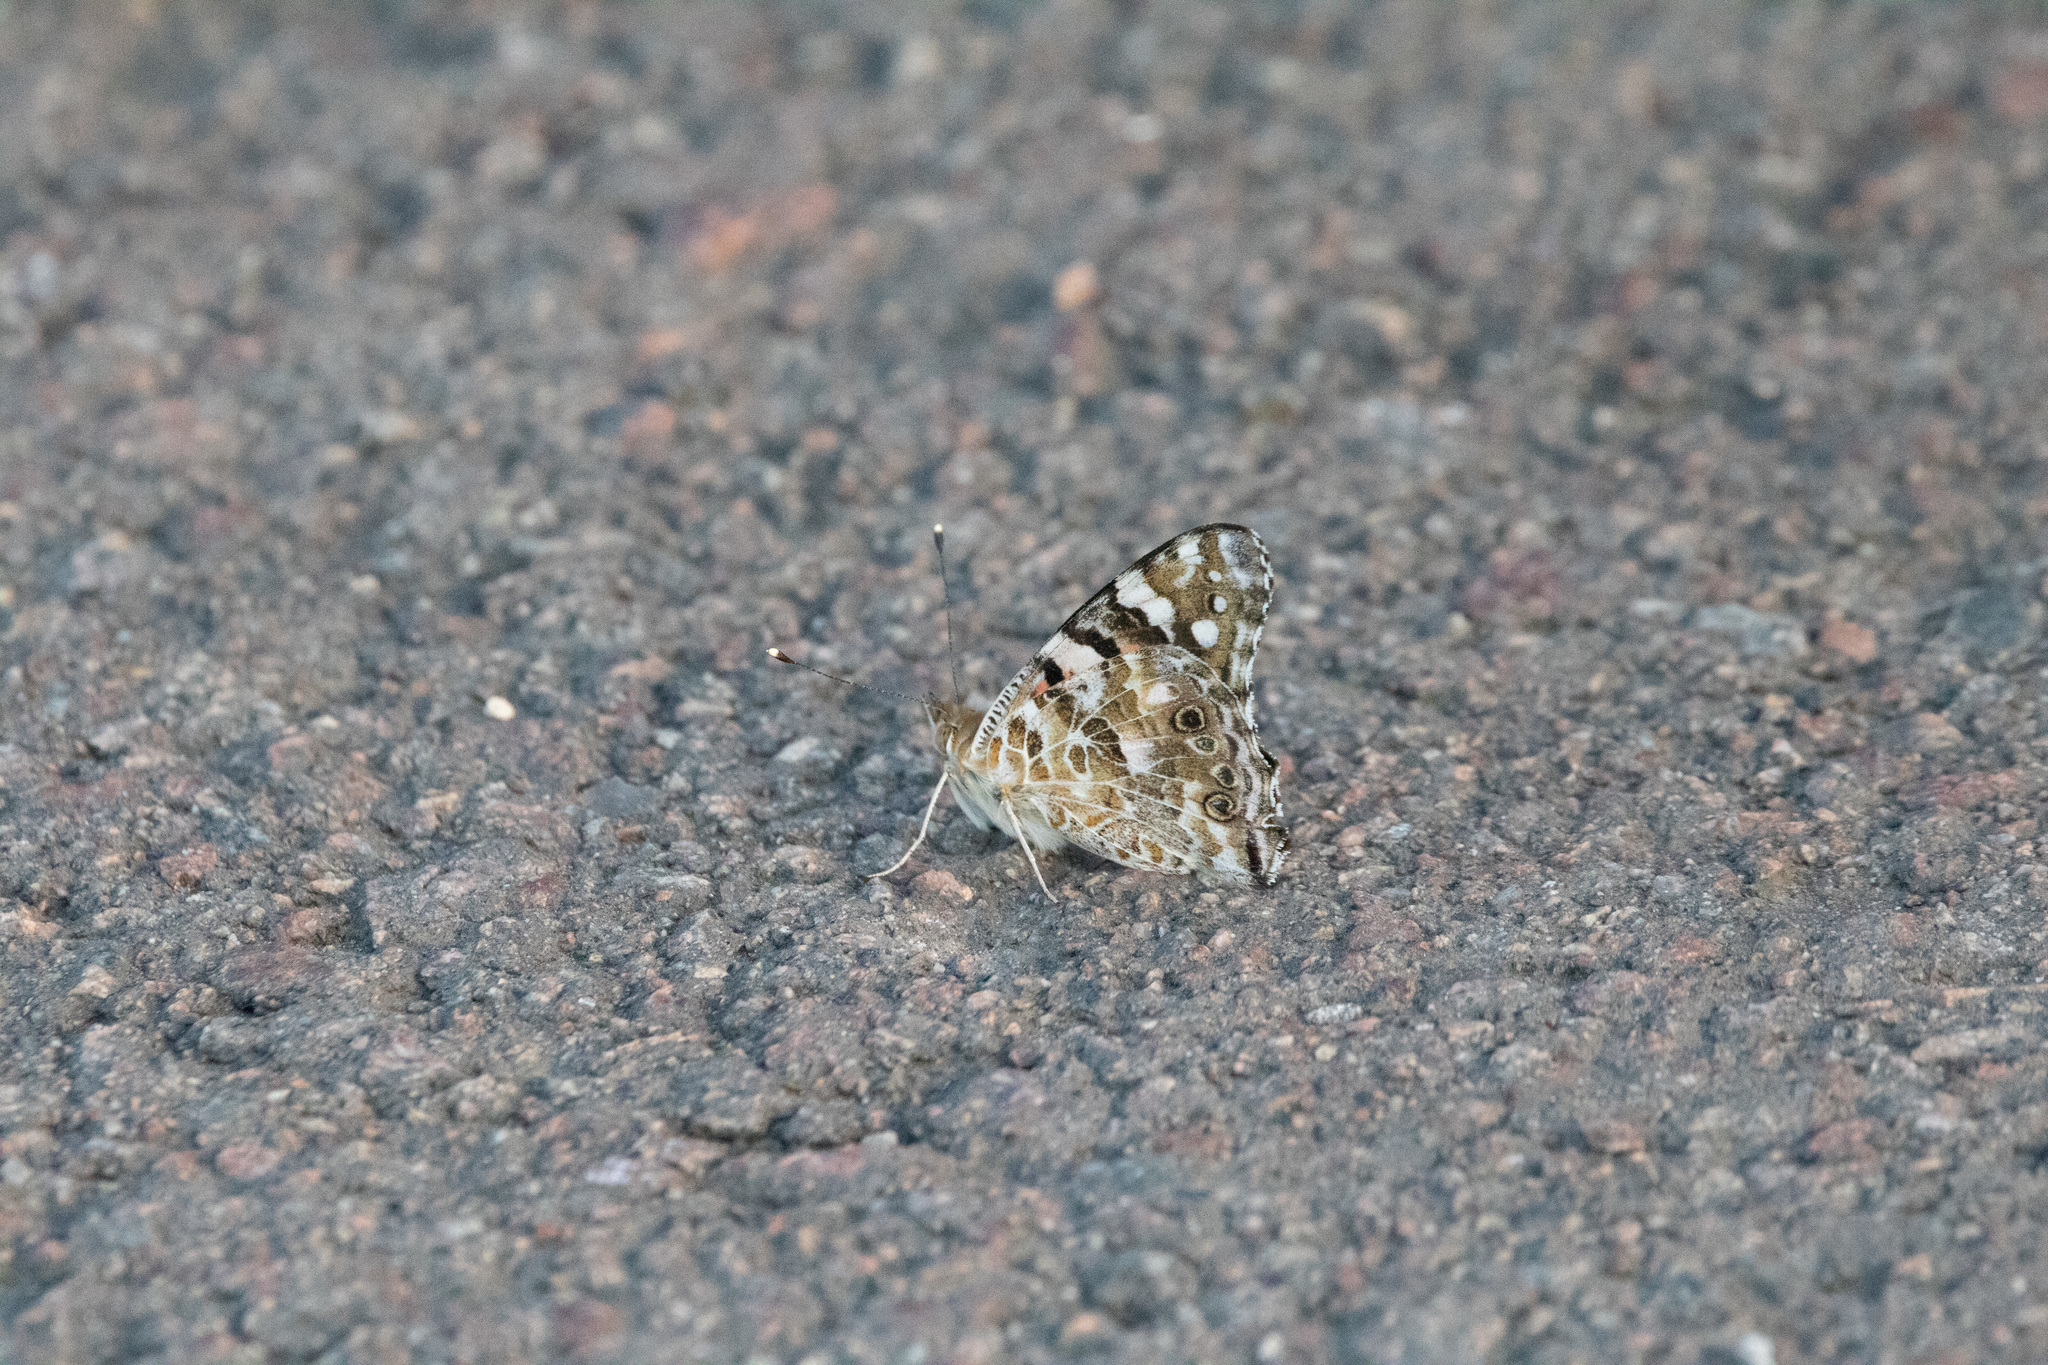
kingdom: Animalia
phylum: Arthropoda
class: Insecta
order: Lepidoptera
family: Nymphalidae
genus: Vanessa
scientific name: Vanessa cardui
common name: Painted lady
